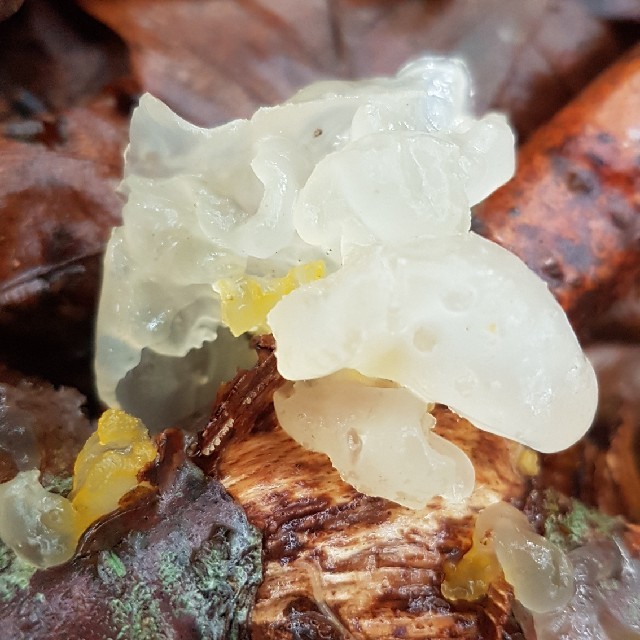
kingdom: Fungi
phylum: Basidiomycota
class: Agaricomycetes
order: Auriculariales
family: Hyaloriaceae
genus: Myxarium
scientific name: Myxarium nucleatum
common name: Crystal brain fungus
